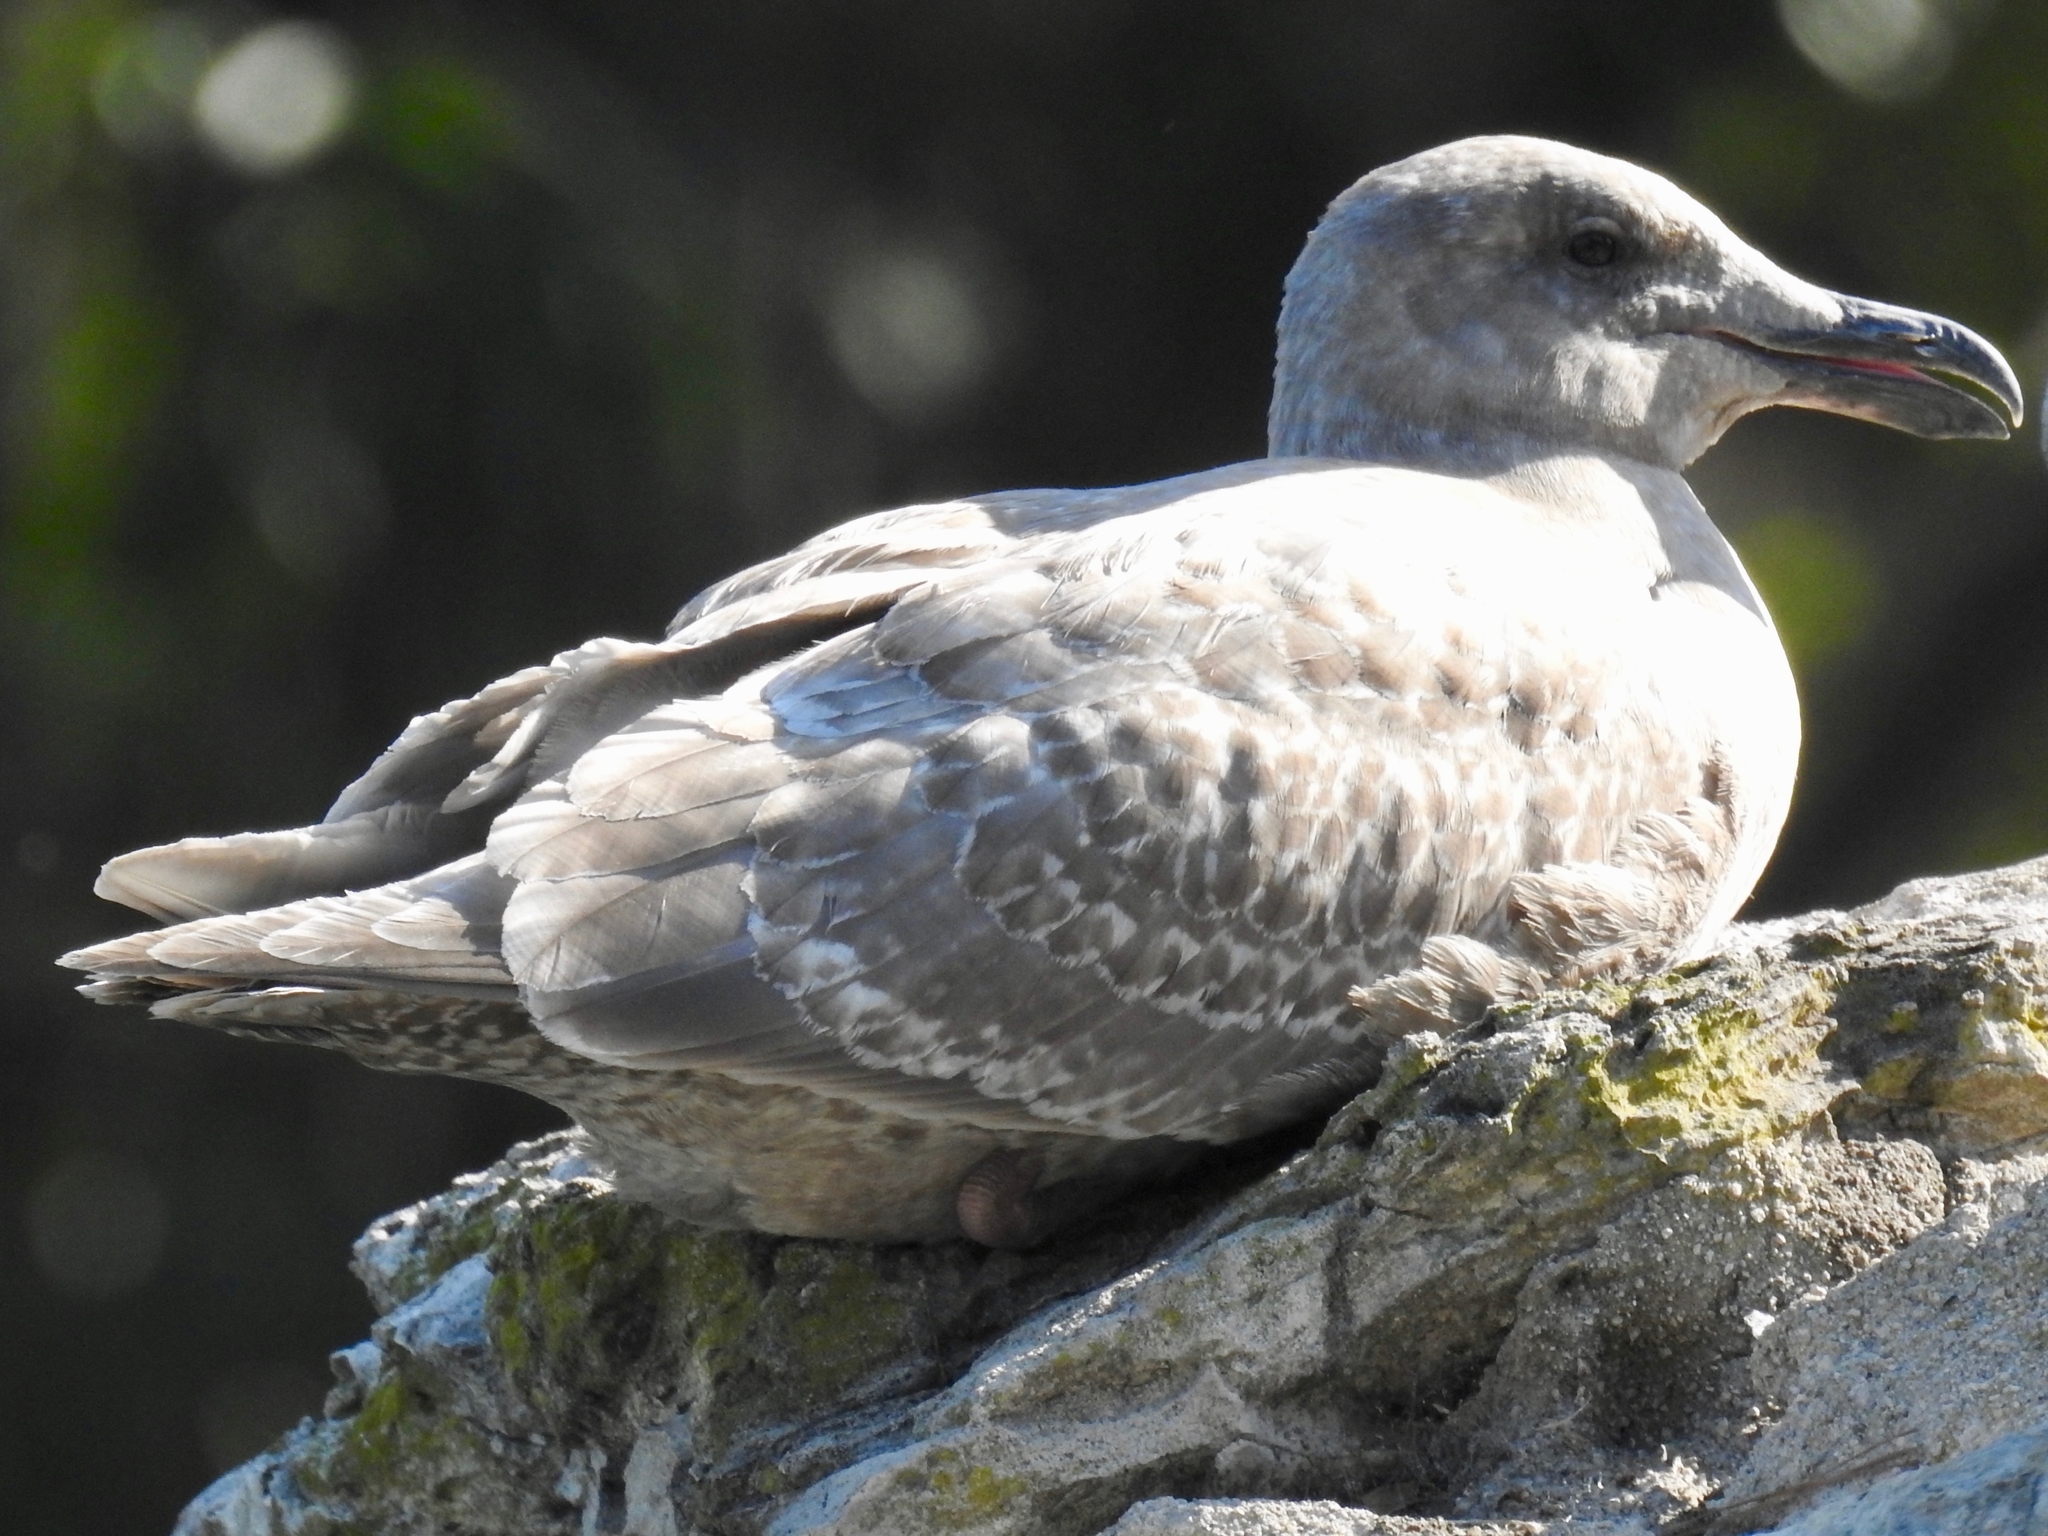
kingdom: Animalia
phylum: Chordata
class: Aves
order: Charadriiformes
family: Laridae
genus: Larus
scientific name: Larus glaucescens
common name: Glaucous-winged gull
